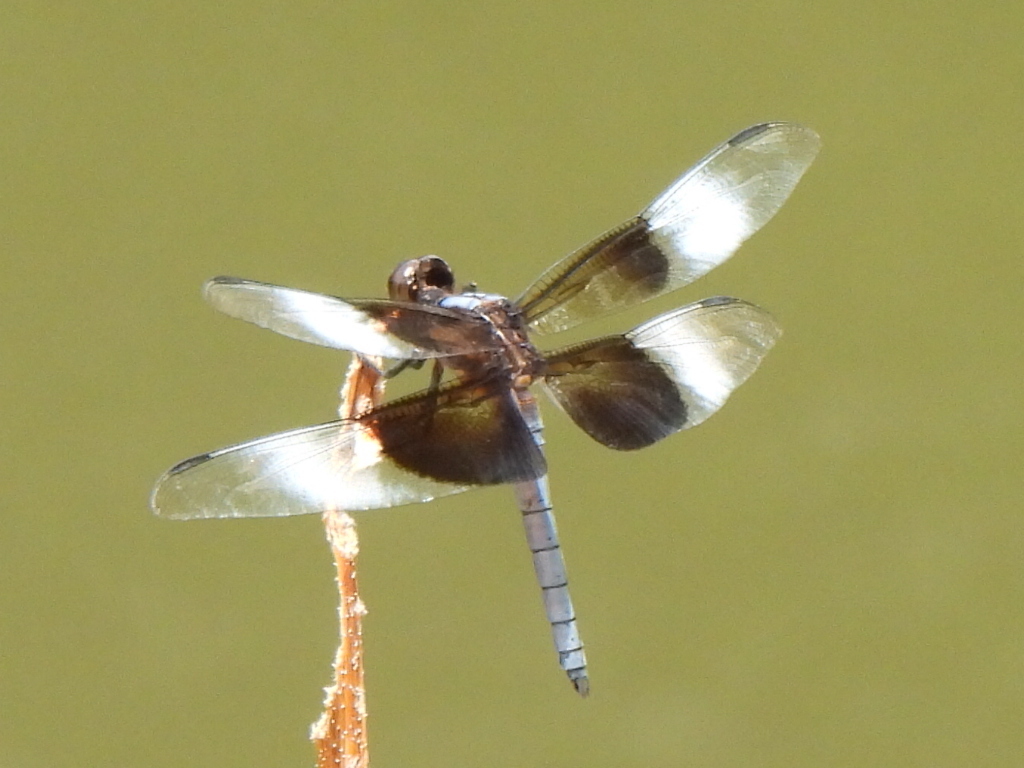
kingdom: Animalia
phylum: Arthropoda
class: Insecta
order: Odonata
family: Libellulidae
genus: Libellula
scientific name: Libellula luctuosa
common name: Widow skimmer
